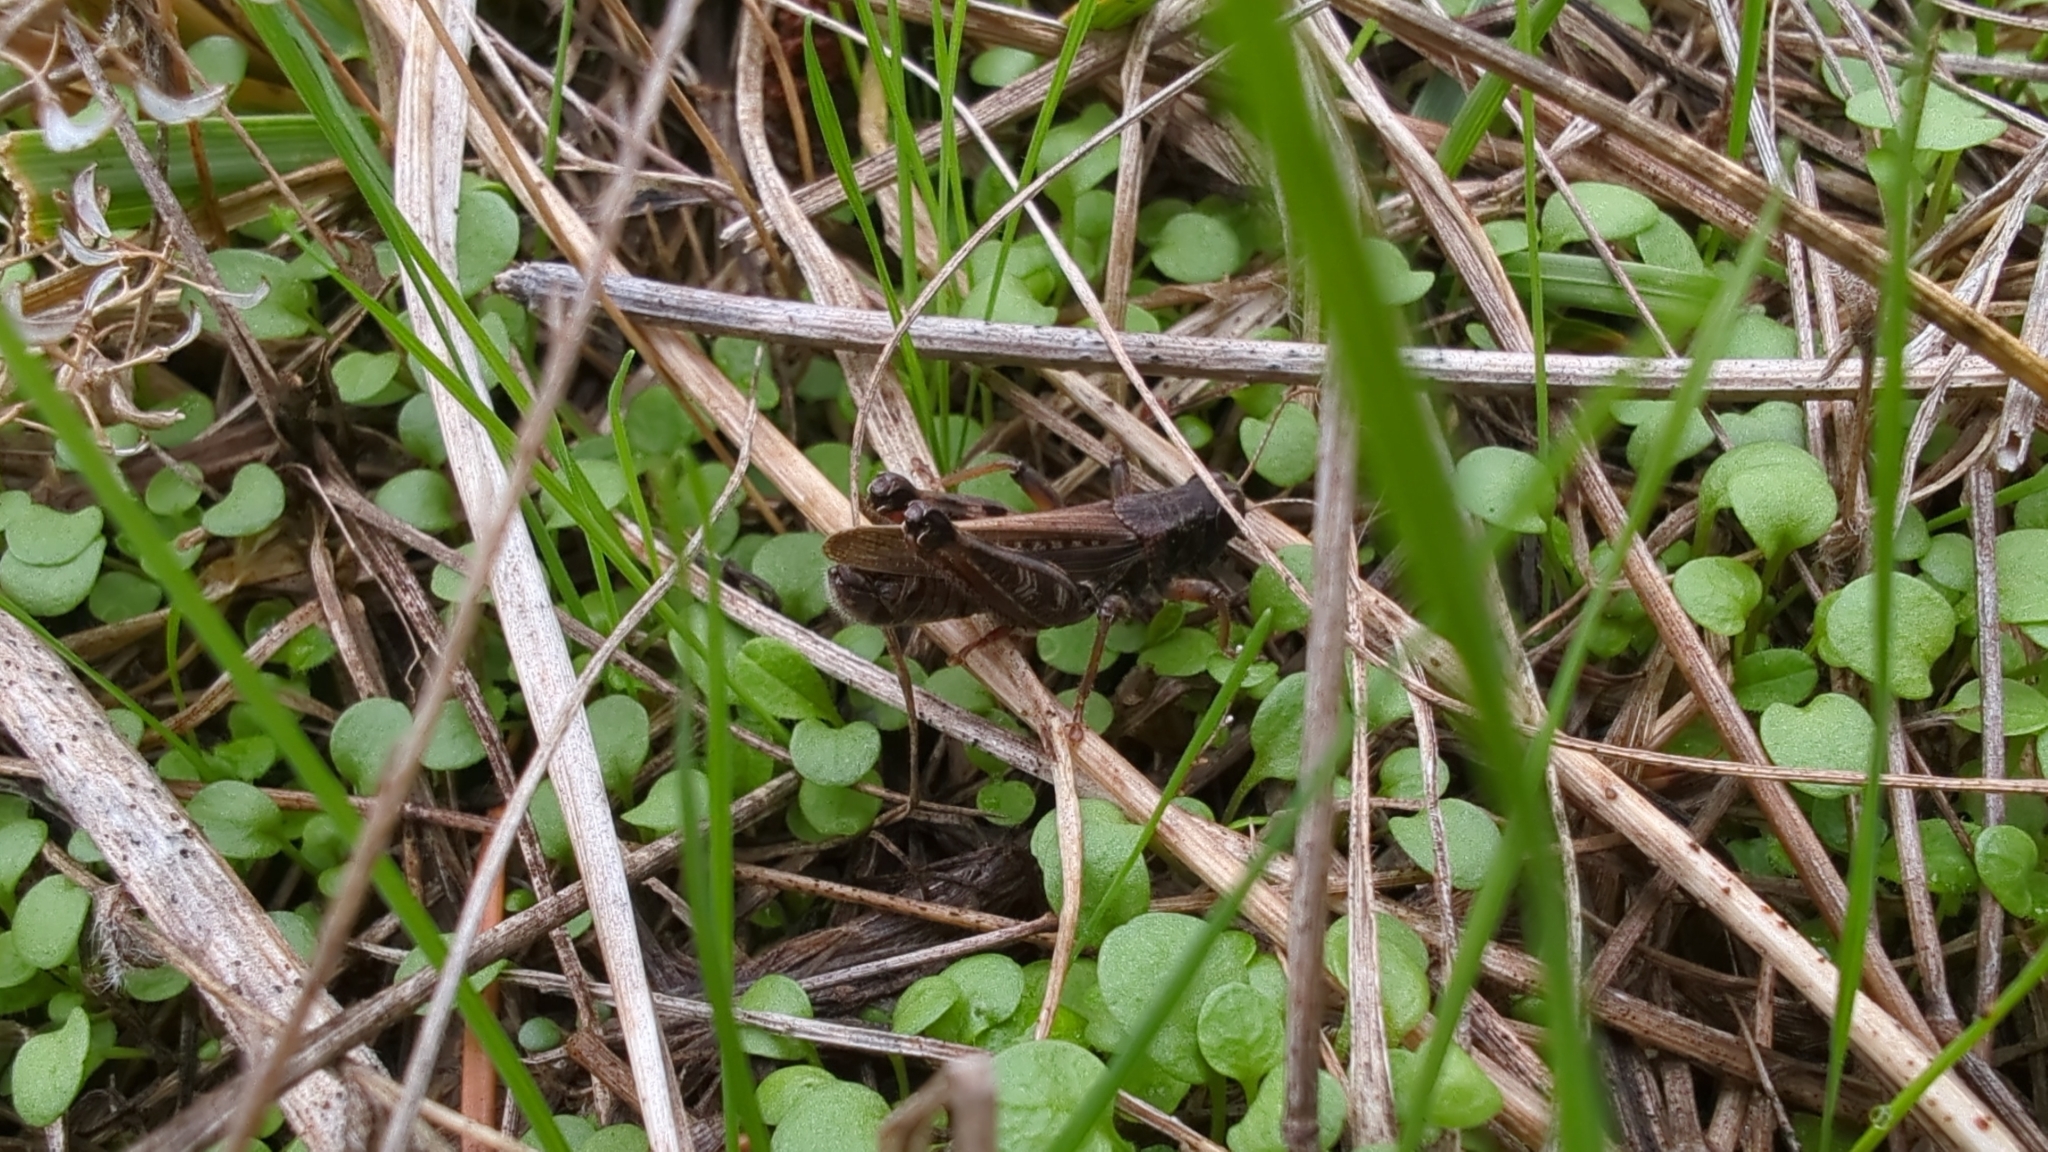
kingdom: Animalia
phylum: Arthropoda
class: Insecta
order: Orthoptera
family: Acrididae
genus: Melanoplus
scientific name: Melanoplus sanguinipes
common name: Migratory grasshopper
